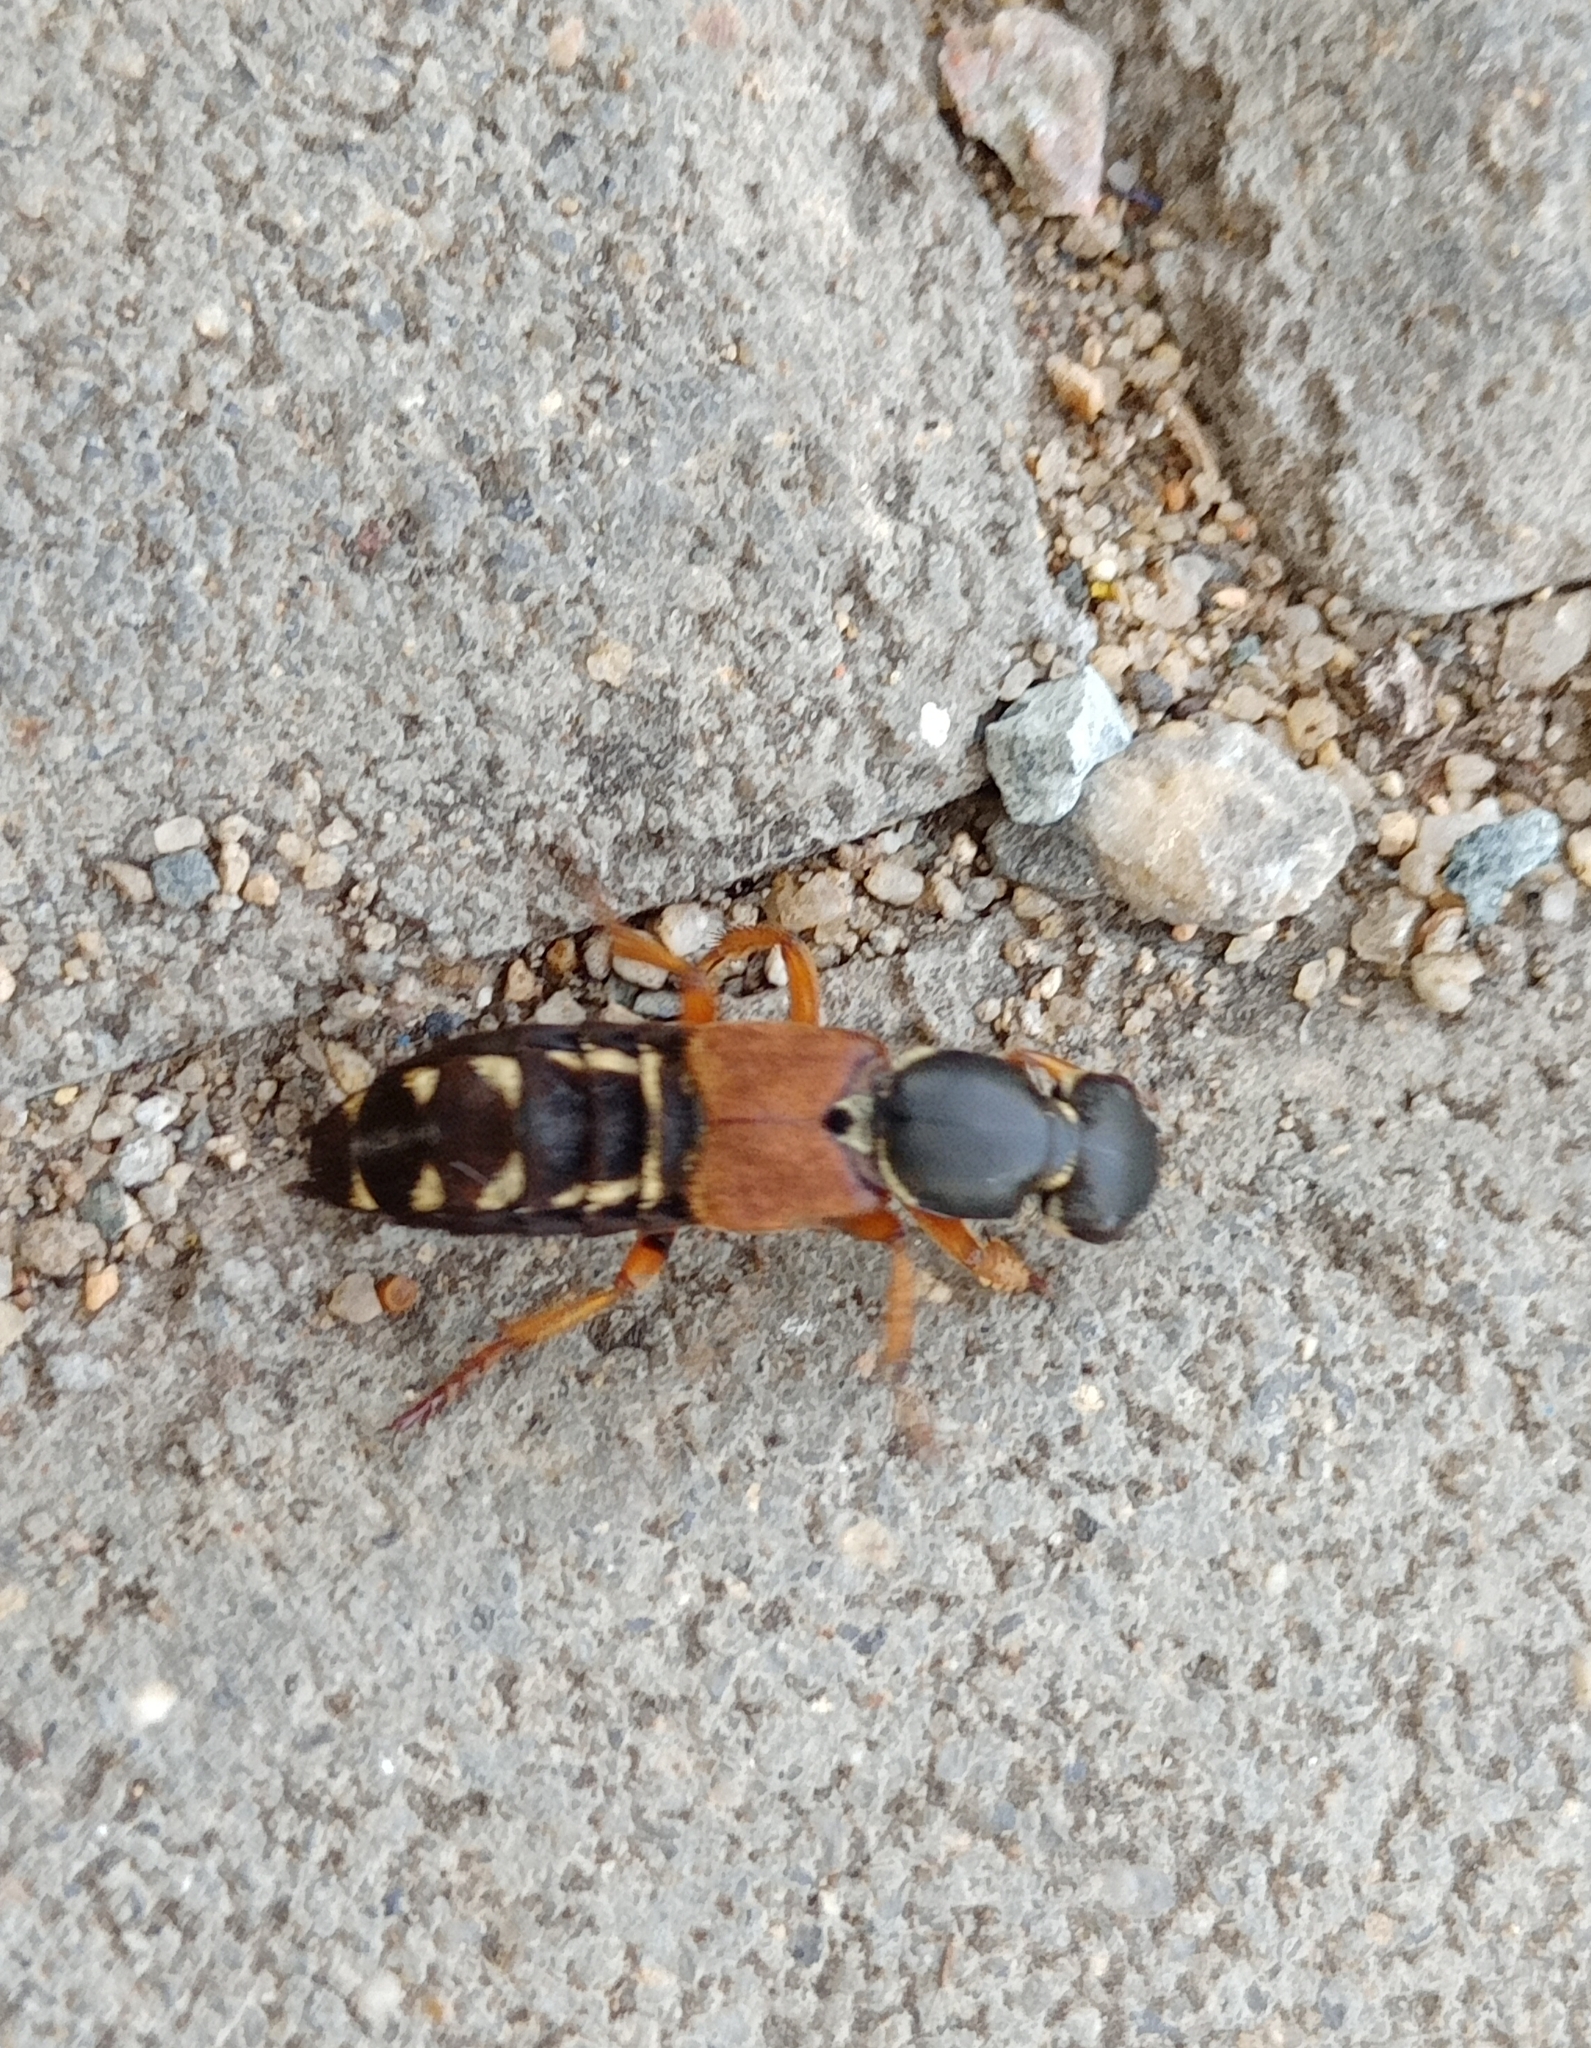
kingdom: Animalia
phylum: Arthropoda
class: Insecta
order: Coleoptera
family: Staphylinidae
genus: Staphylinus
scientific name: Staphylinus caesareus
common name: Staph beetle
